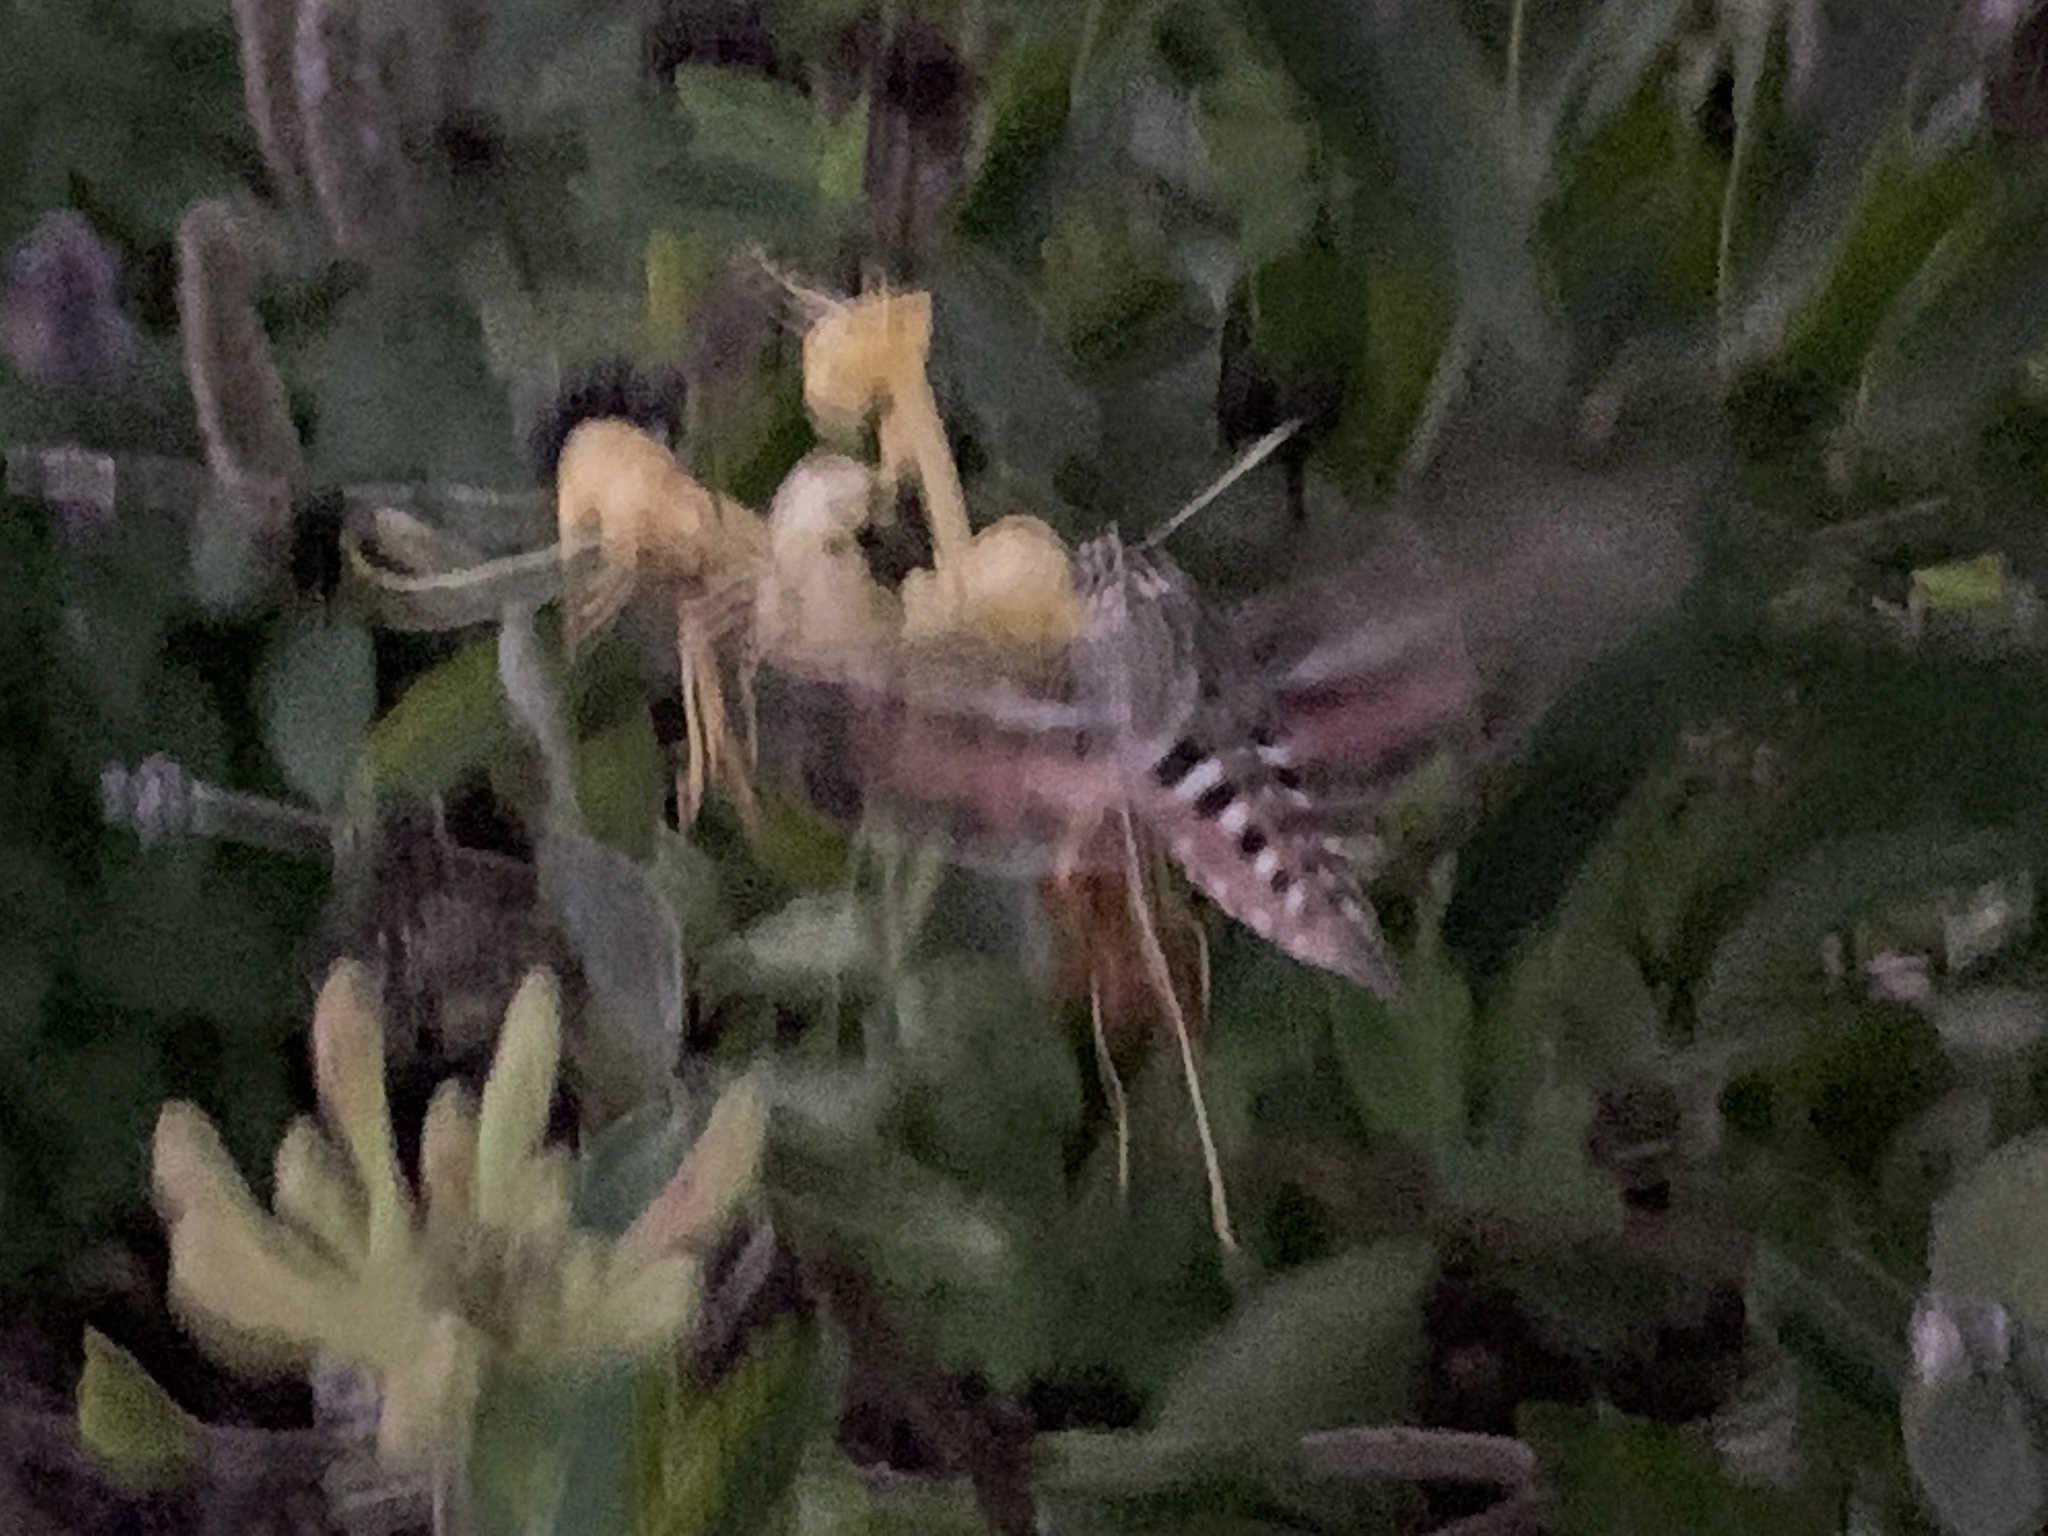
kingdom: Animalia
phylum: Arthropoda
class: Insecta
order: Lepidoptera
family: Sphingidae
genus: Hyles
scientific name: Hyles lineata
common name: White-lined sphinx
